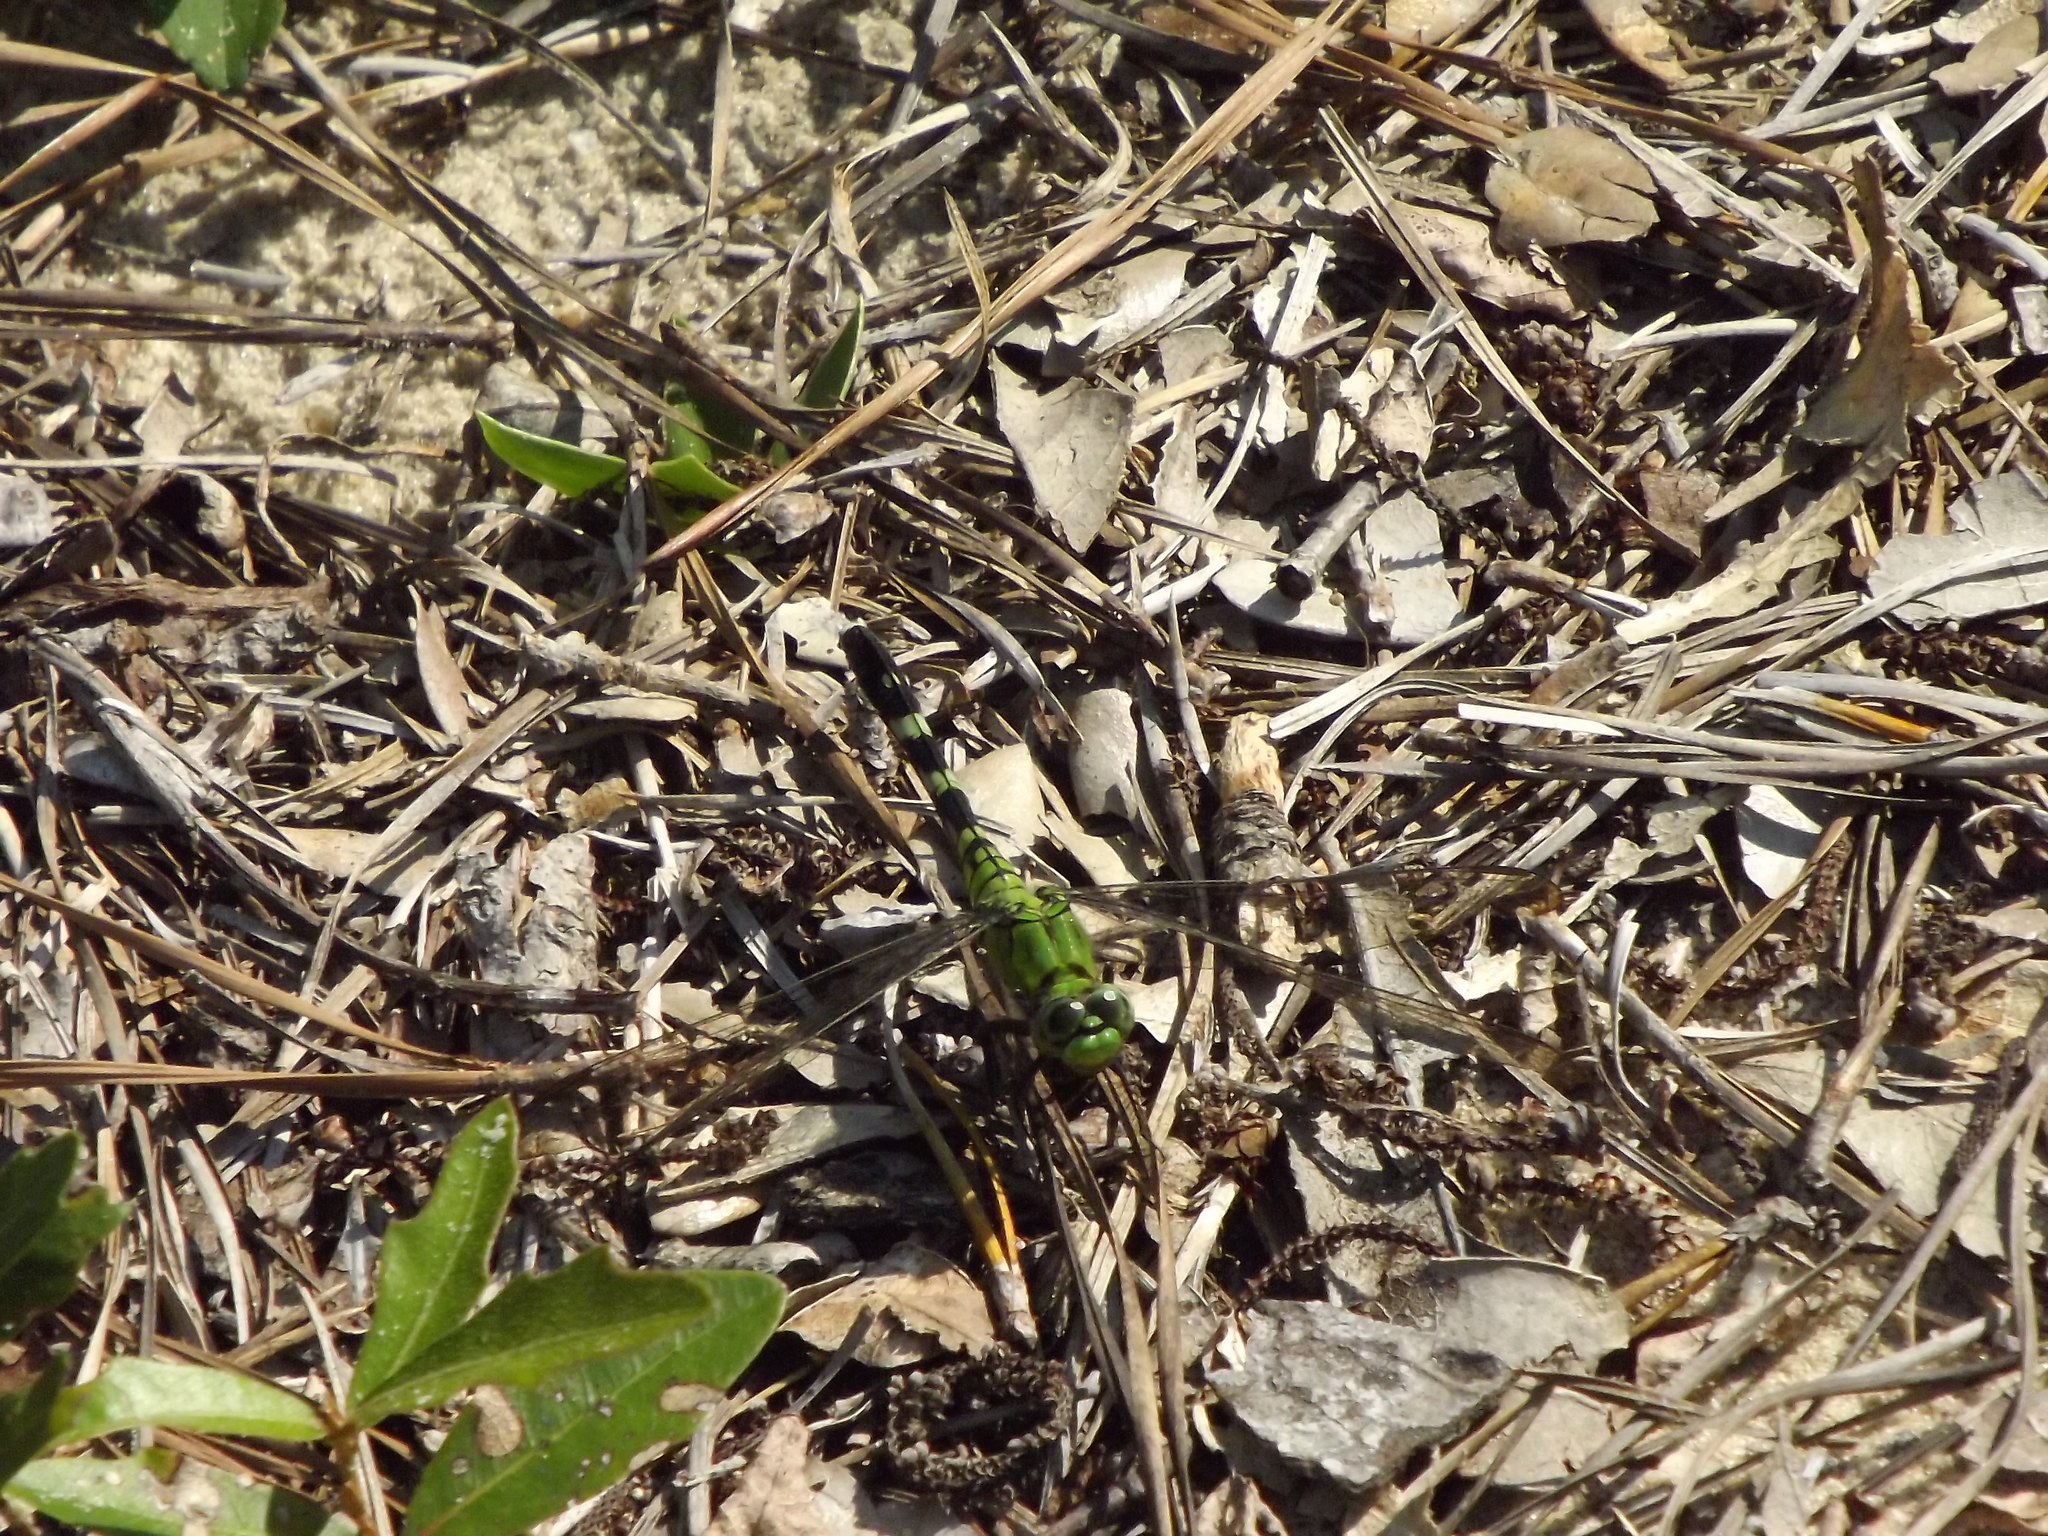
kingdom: Animalia
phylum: Arthropoda
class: Insecta
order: Odonata
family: Libellulidae
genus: Erythemis
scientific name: Erythemis simplicicollis
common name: Eastern pondhawk
